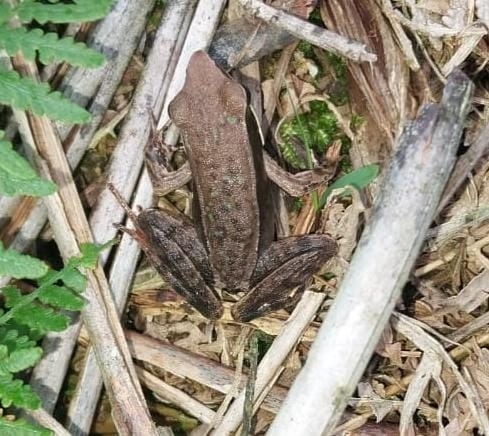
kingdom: Animalia
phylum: Chordata
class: Amphibia
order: Anura
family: Ranidae
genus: Lithobates
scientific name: Lithobates warszewitschii
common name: Warszewitsch's frog
